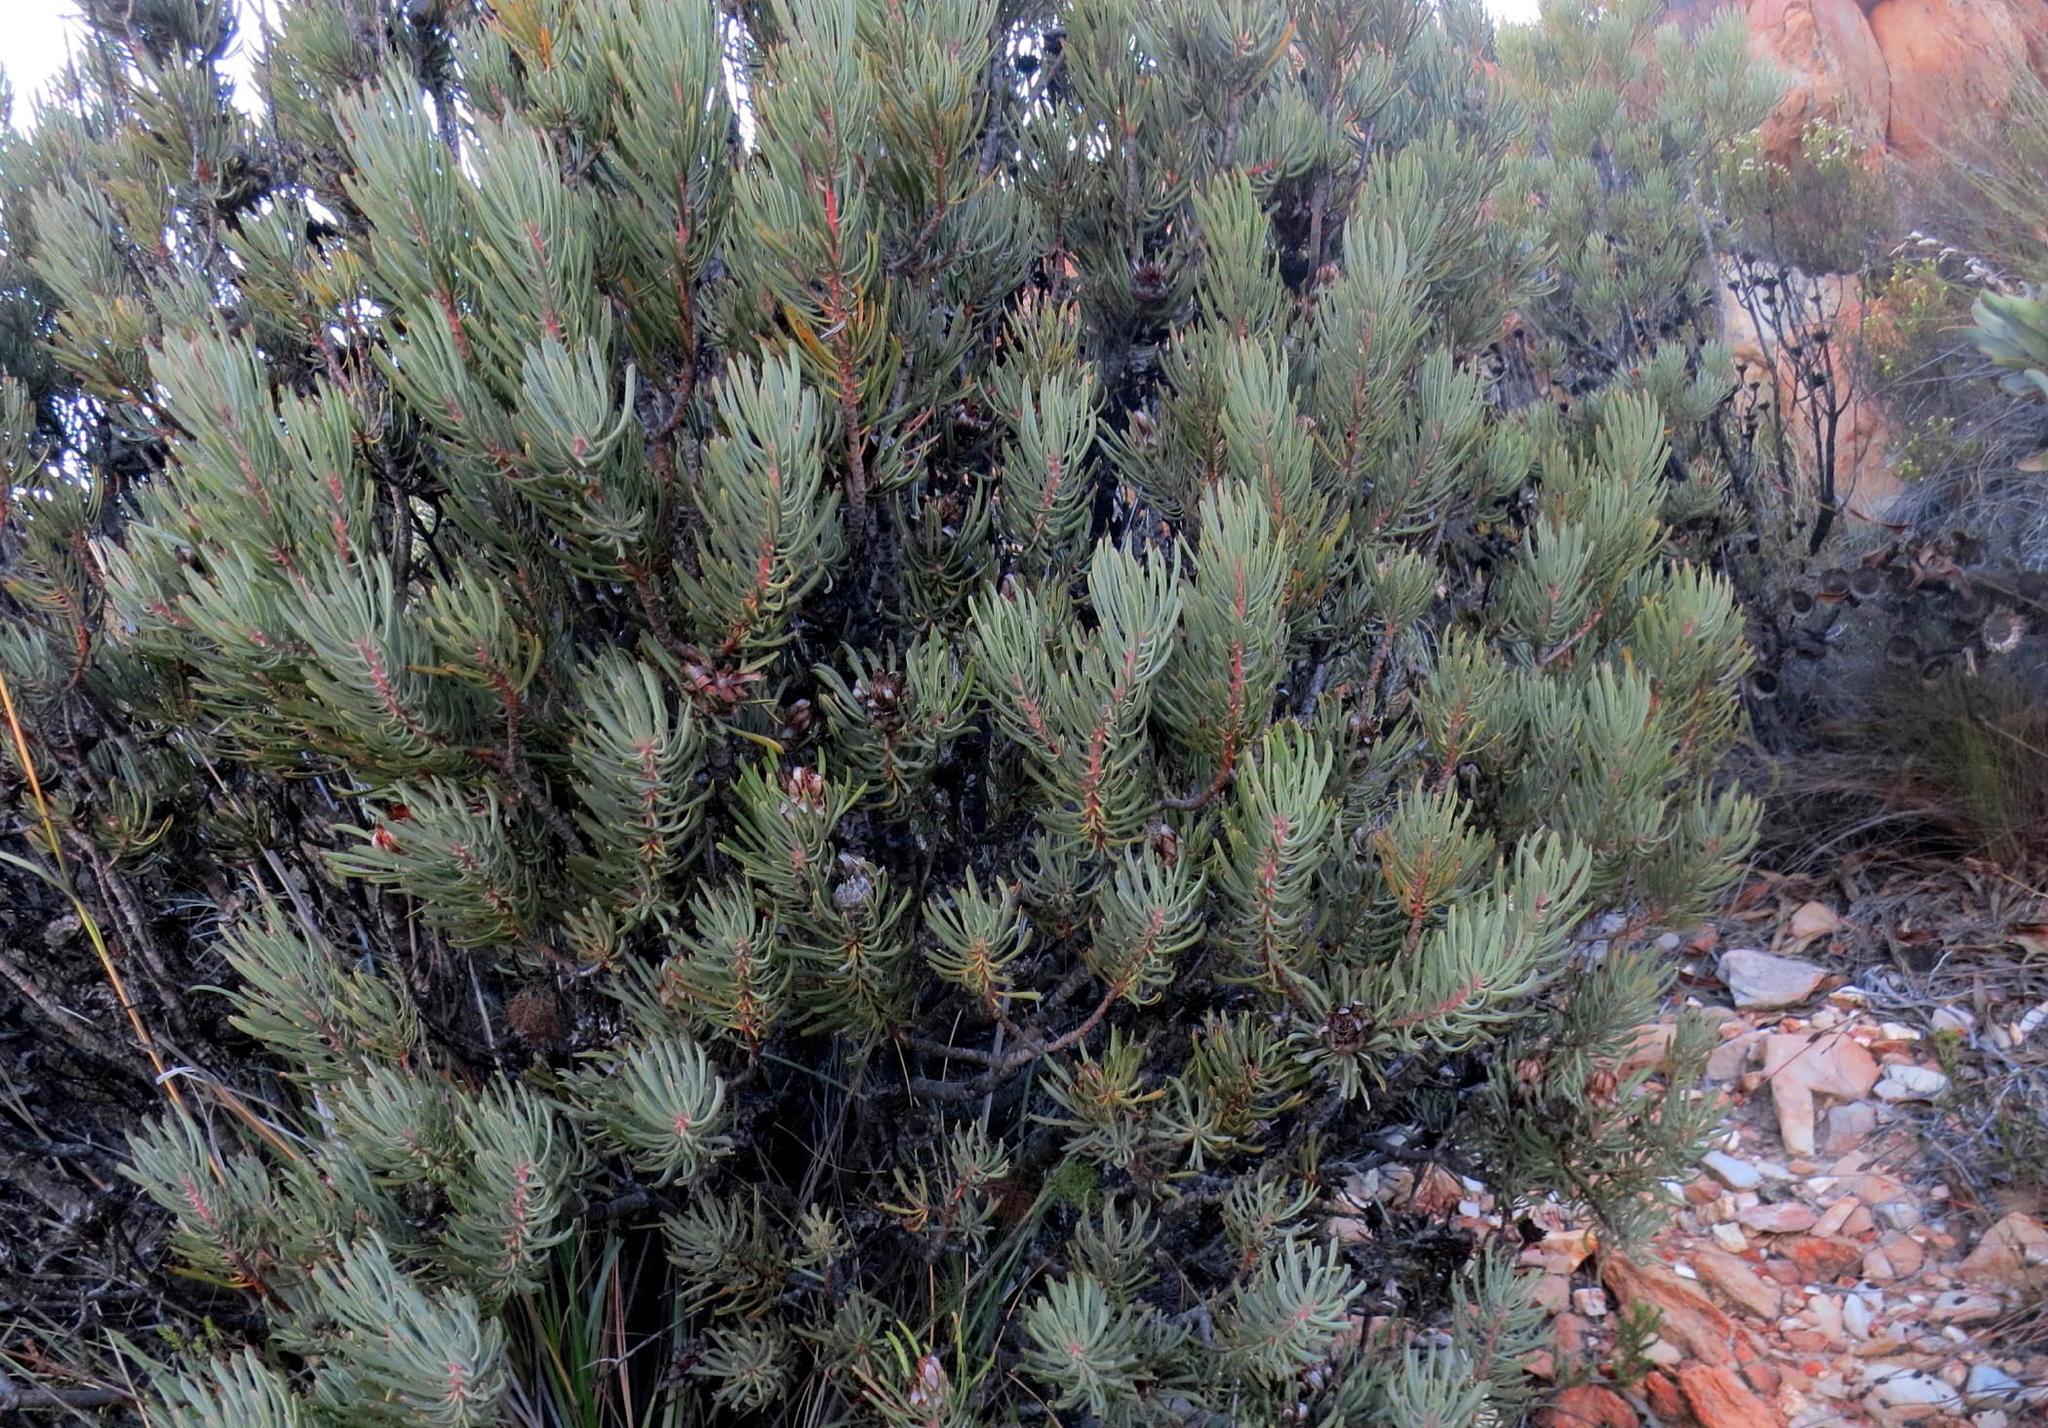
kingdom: Plantae
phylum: Tracheophyta
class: Magnoliopsida
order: Proteales
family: Proteaceae
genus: Protea
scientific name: Protea canaliculata
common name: Groove-leaf sugarbush
